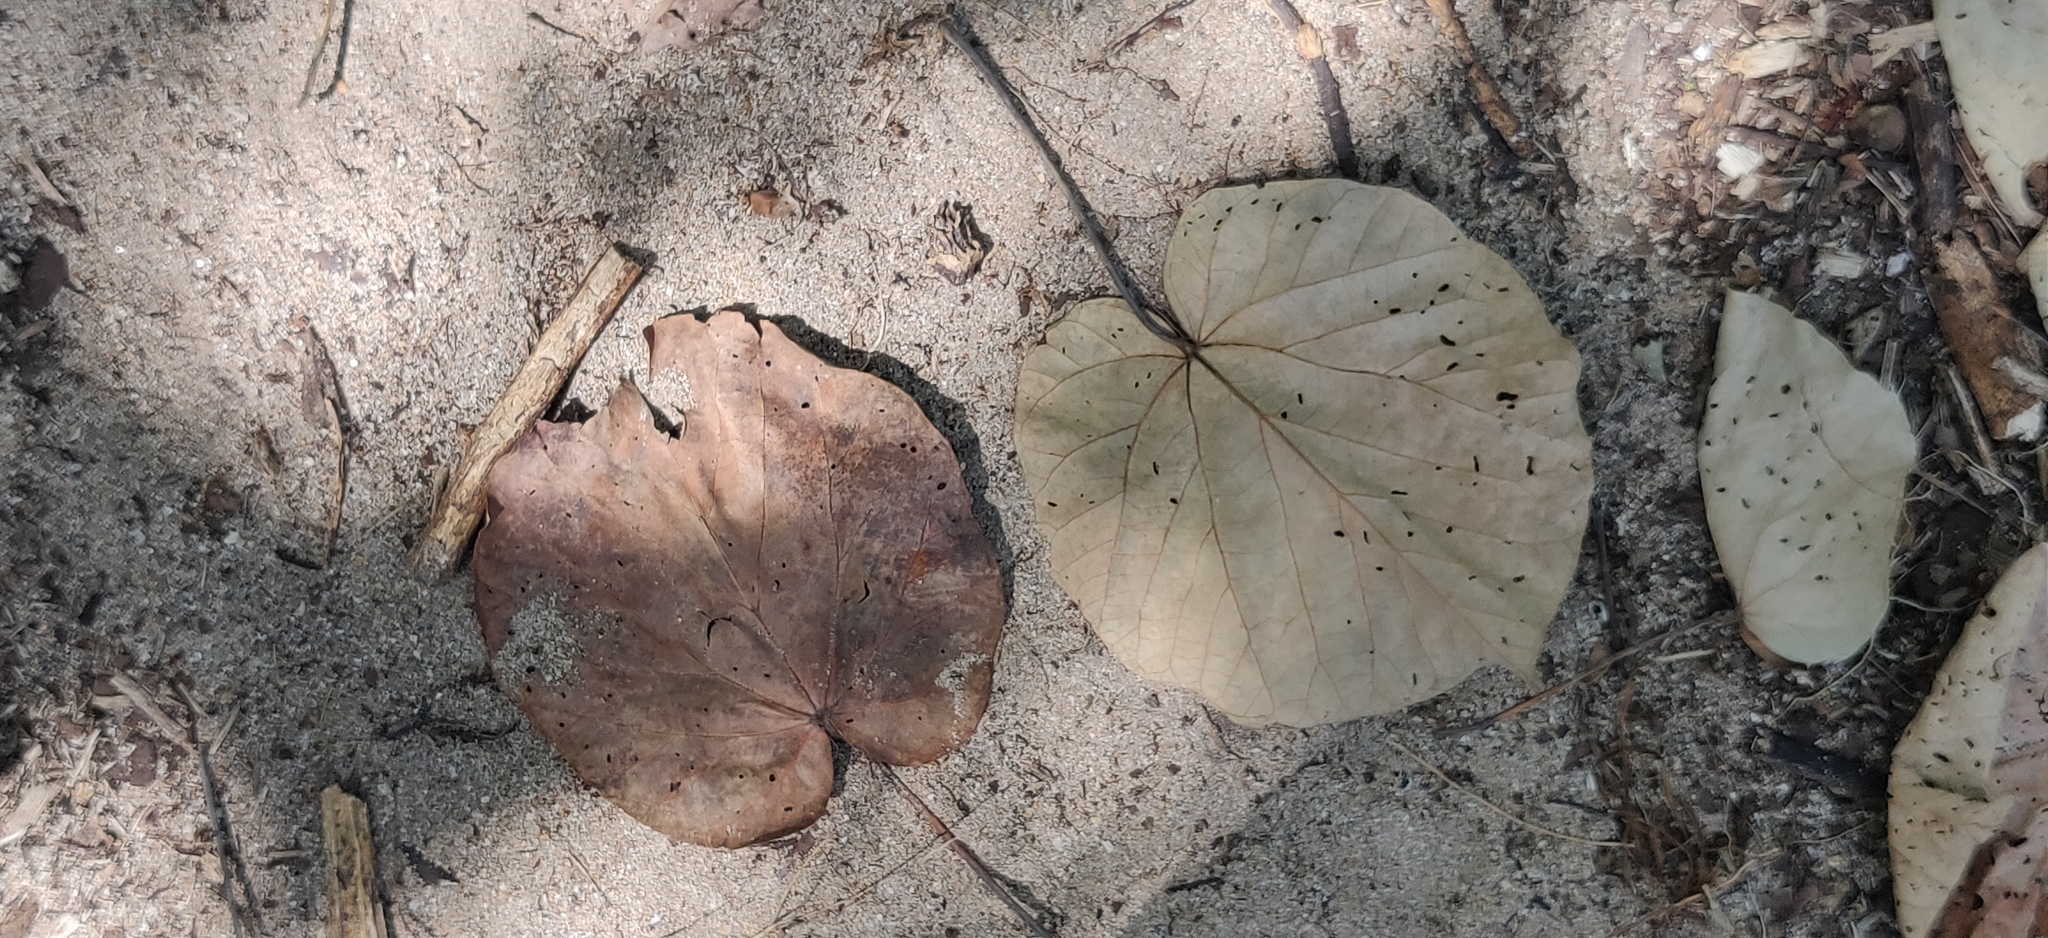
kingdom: Plantae
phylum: Tracheophyta
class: Magnoliopsida
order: Malvales
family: Malvaceae
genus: Talipariti
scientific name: Talipariti tiliaceum
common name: Sea hibiscus
